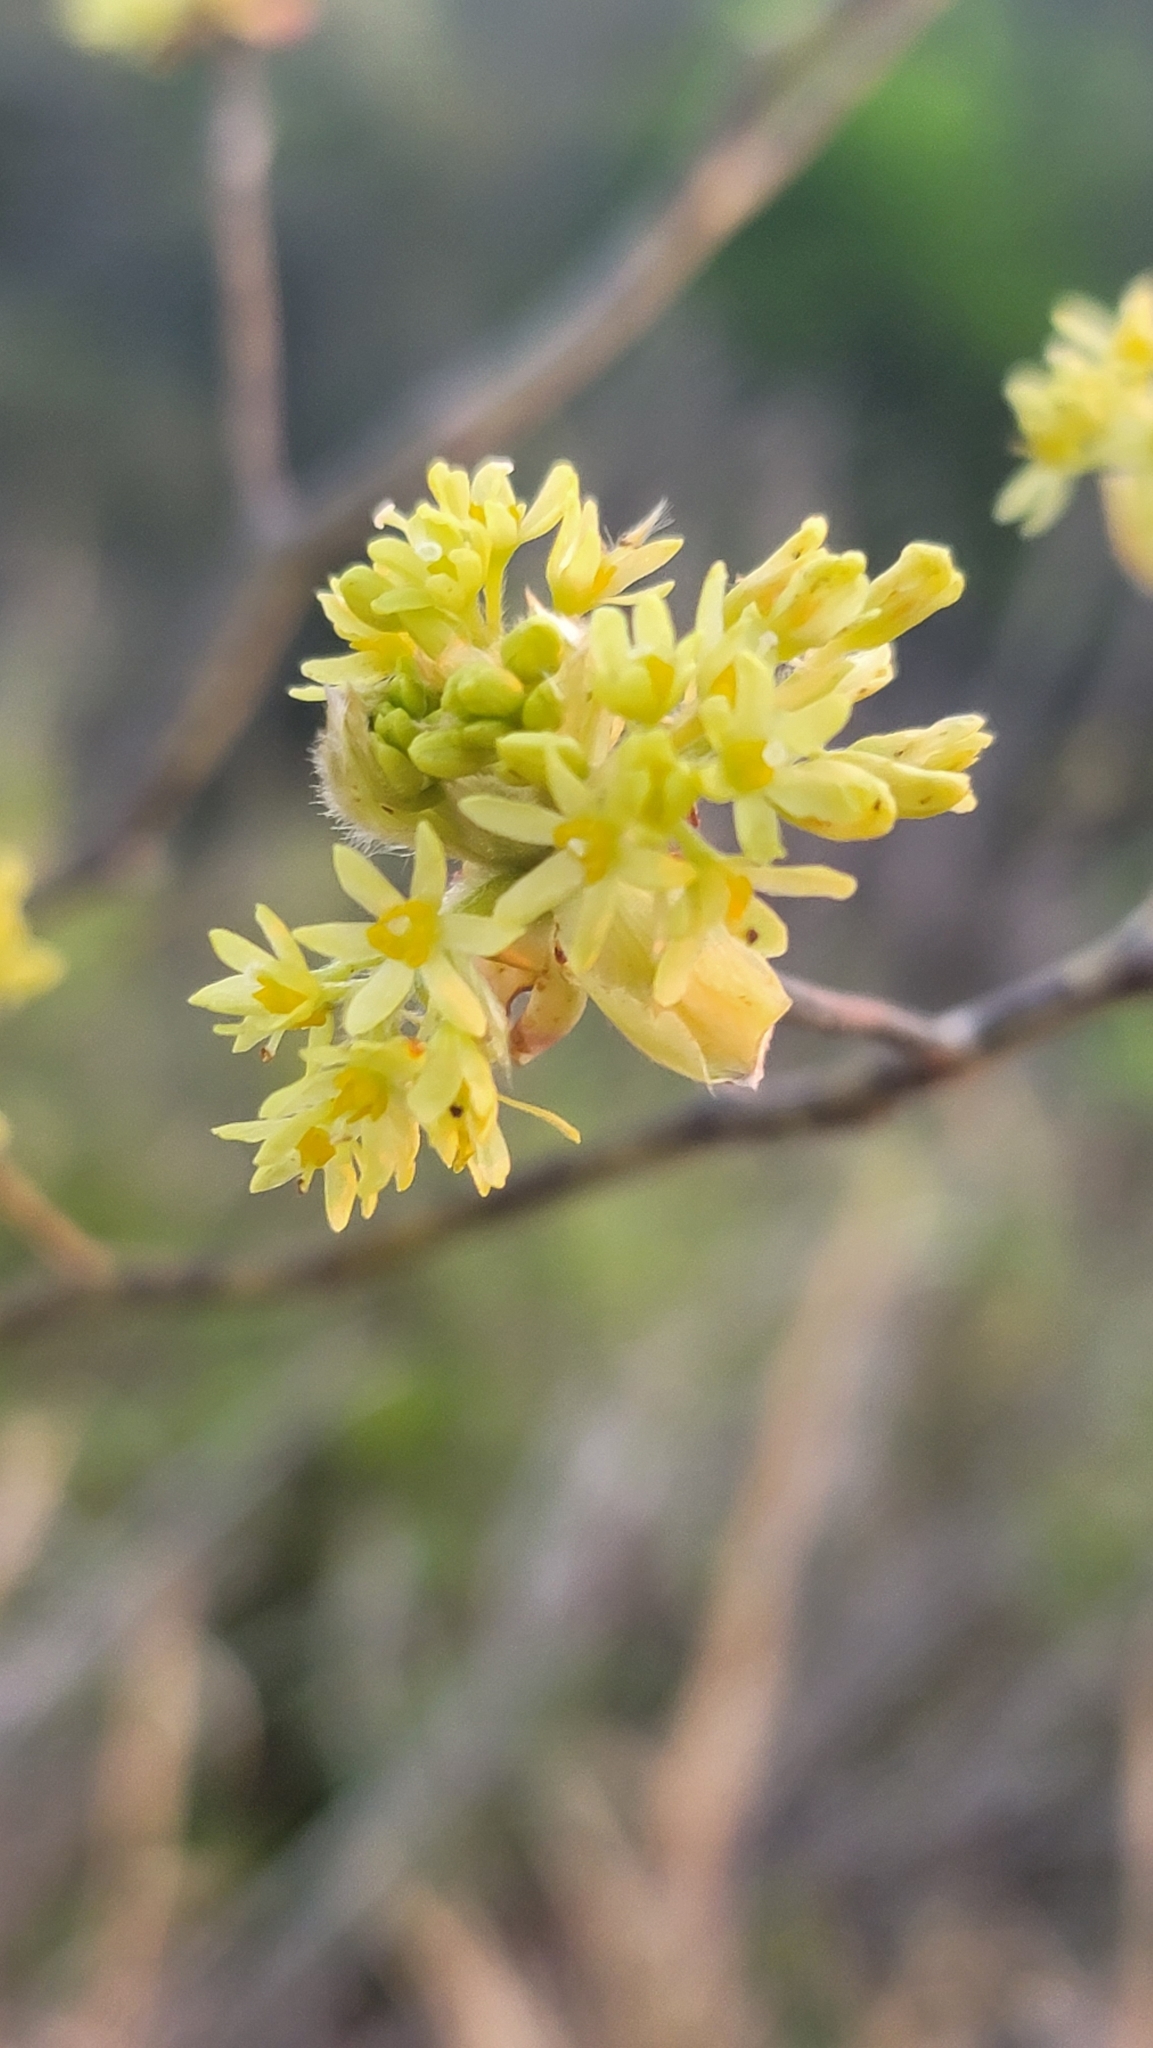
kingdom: Plantae
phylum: Tracheophyta
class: Magnoliopsida
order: Laurales
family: Lauraceae
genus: Sassafras
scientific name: Sassafras albidum
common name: Sassafras
